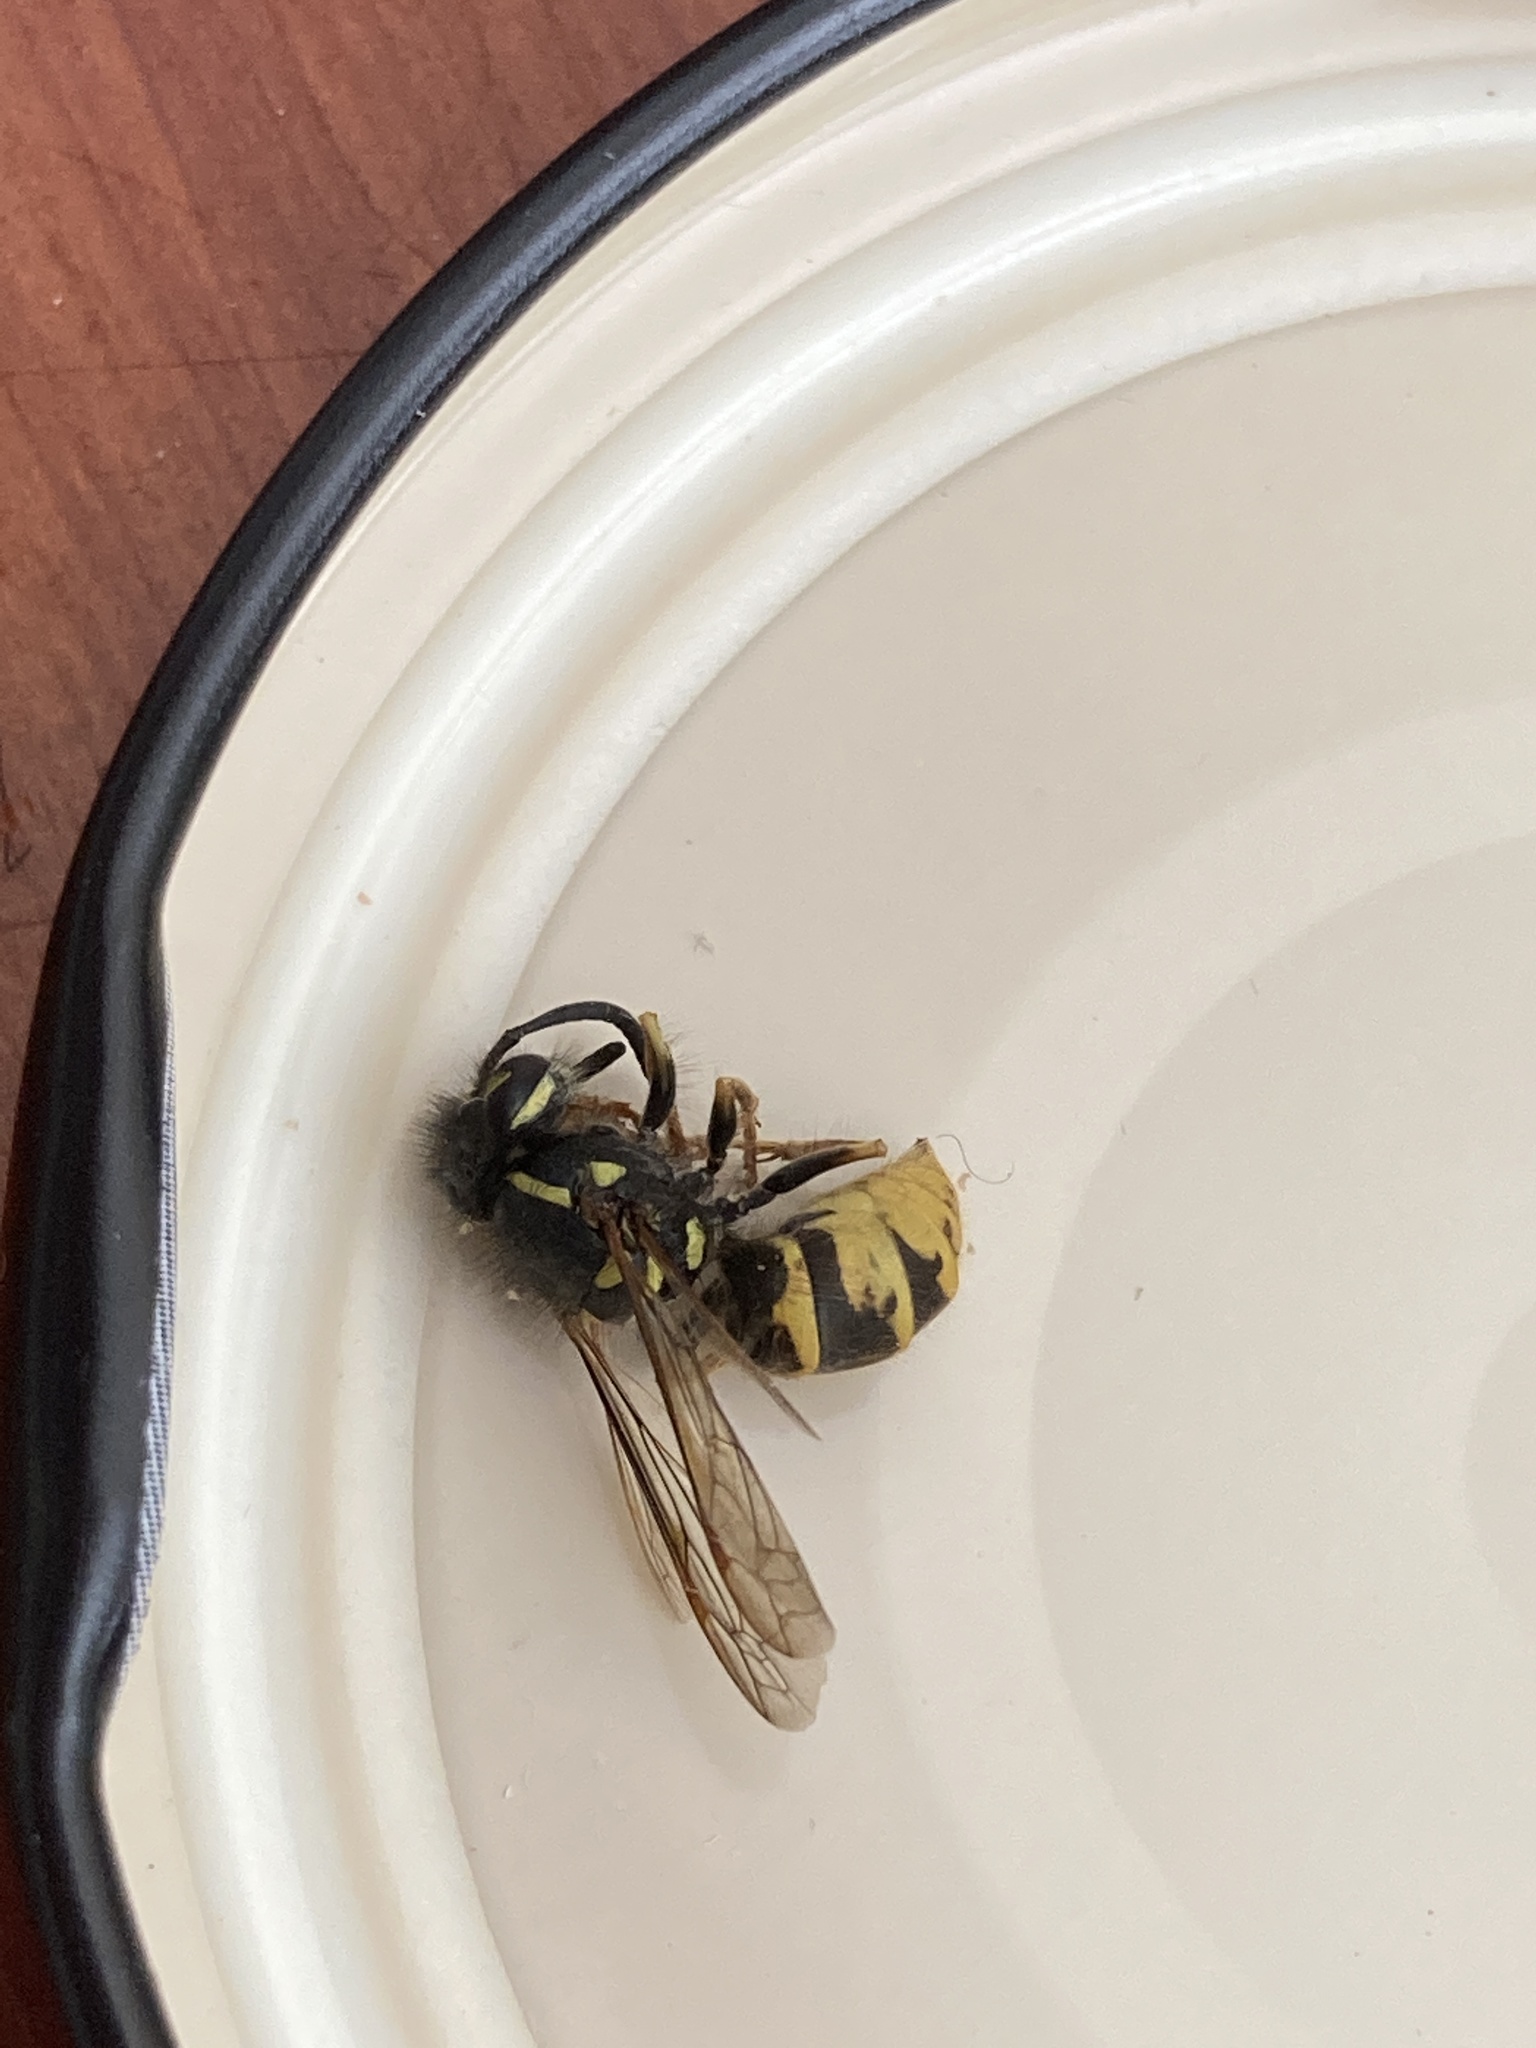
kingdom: Animalia
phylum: Arthropoda
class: Insecta
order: Hymenoptera
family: Vespidae
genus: Vespula
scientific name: Vespula vulgaris
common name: Common wasp
